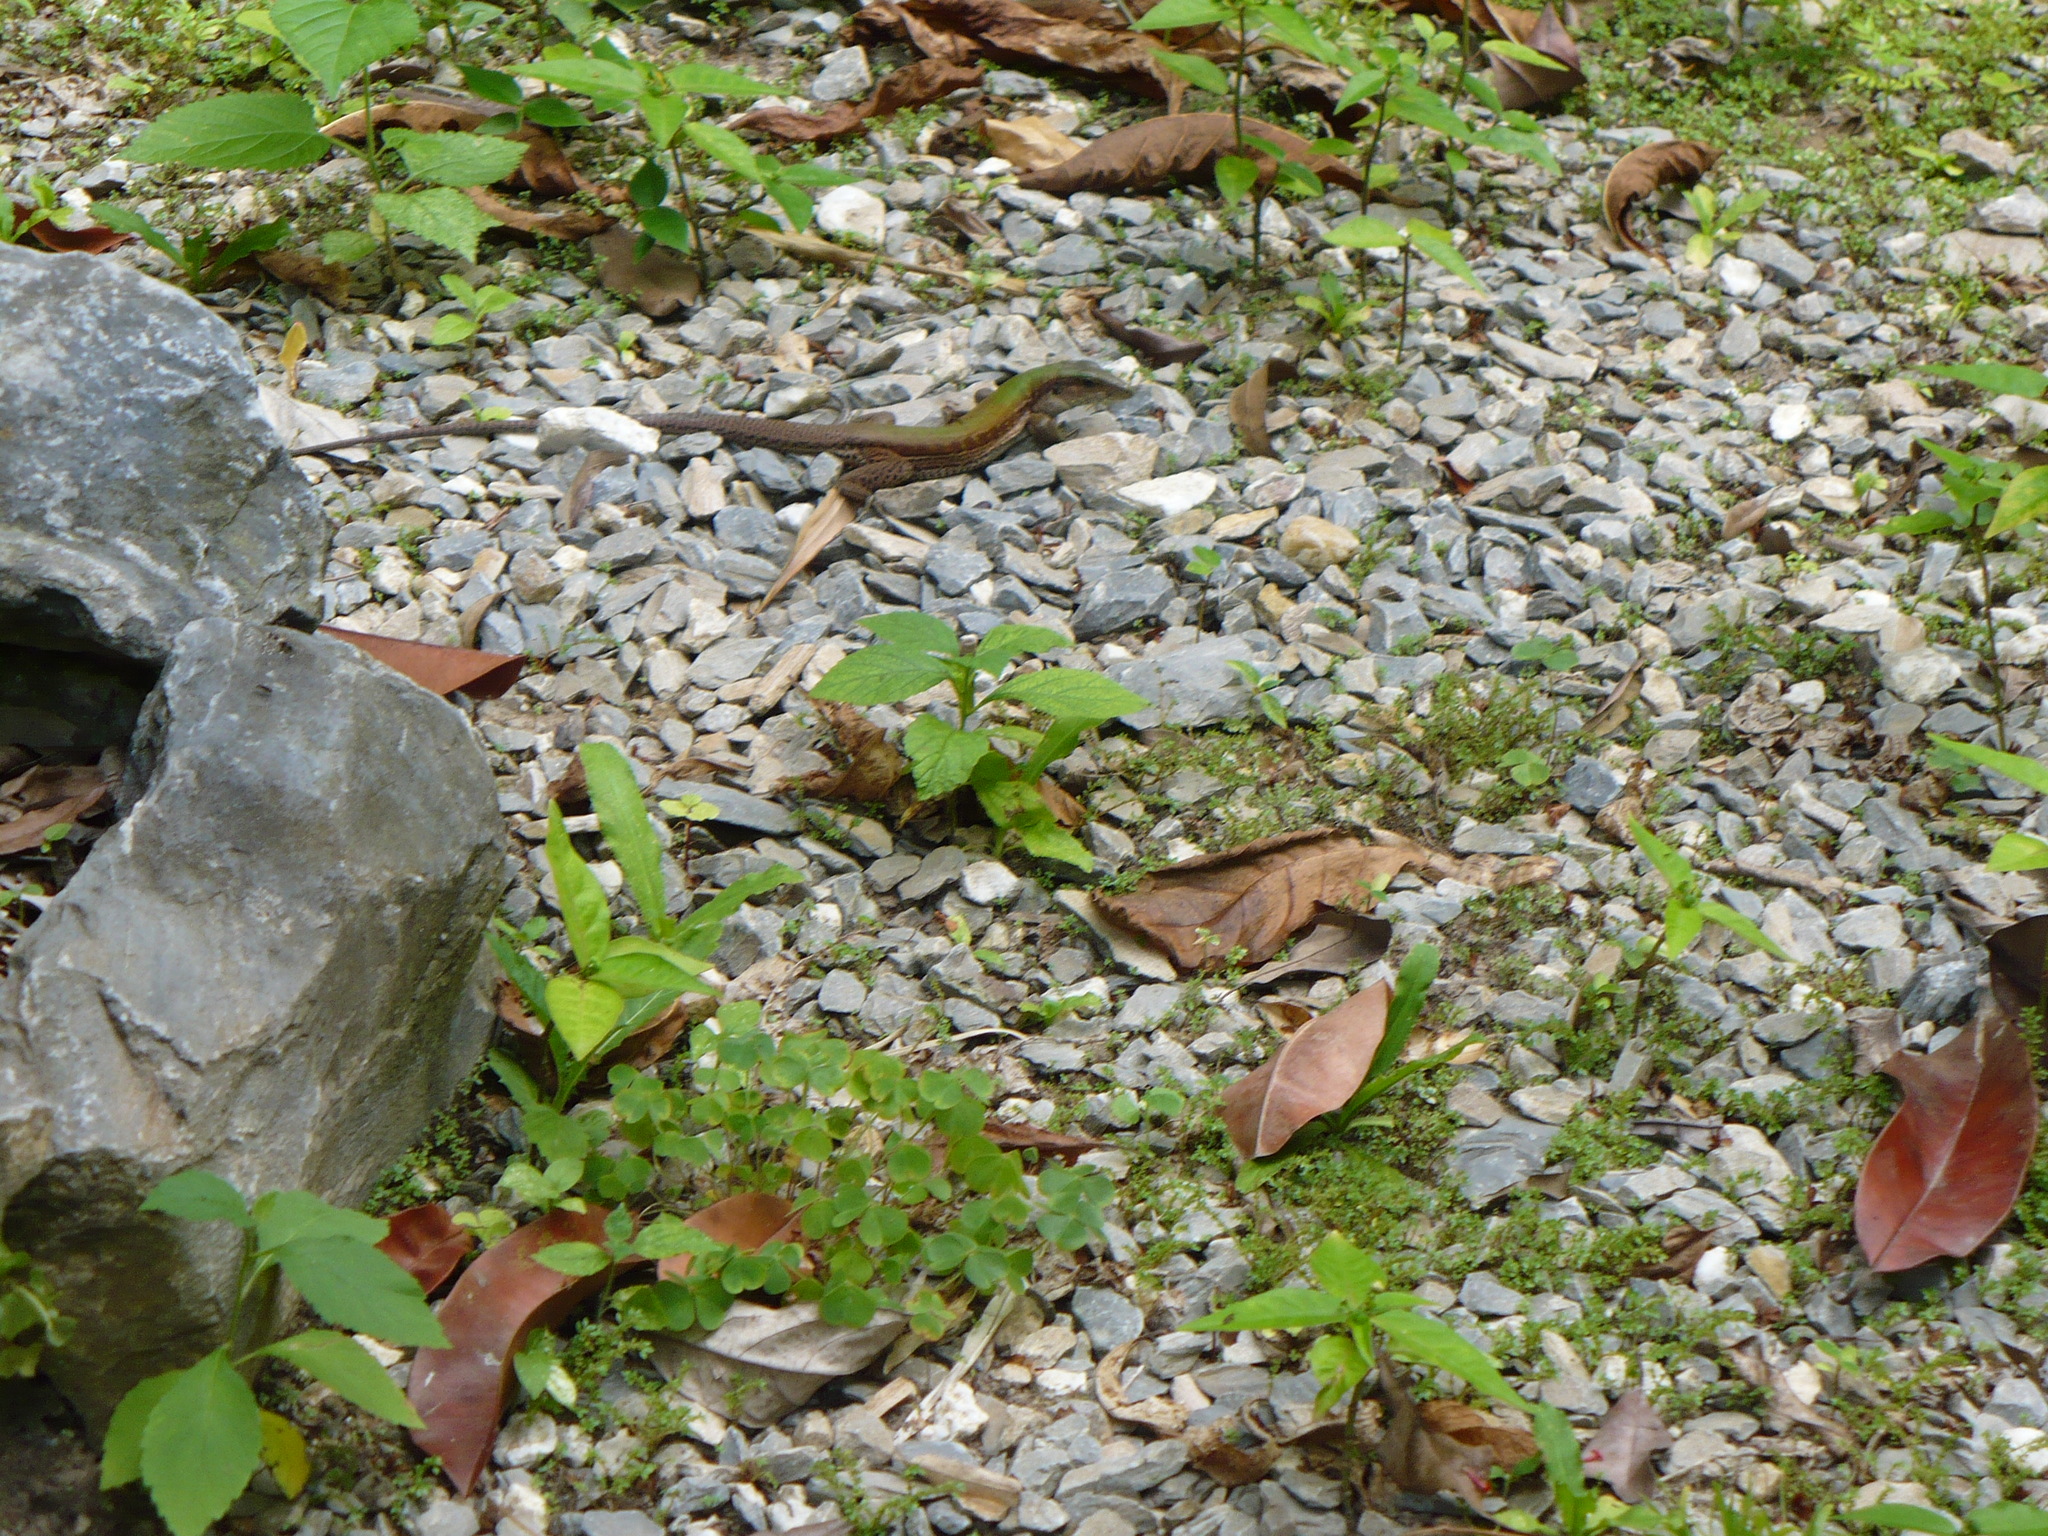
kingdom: Animalia
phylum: Chordata
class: Squamata
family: Teiidae
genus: Ameiva
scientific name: Ameiva atrigularis
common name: Venezuelan ameiva
